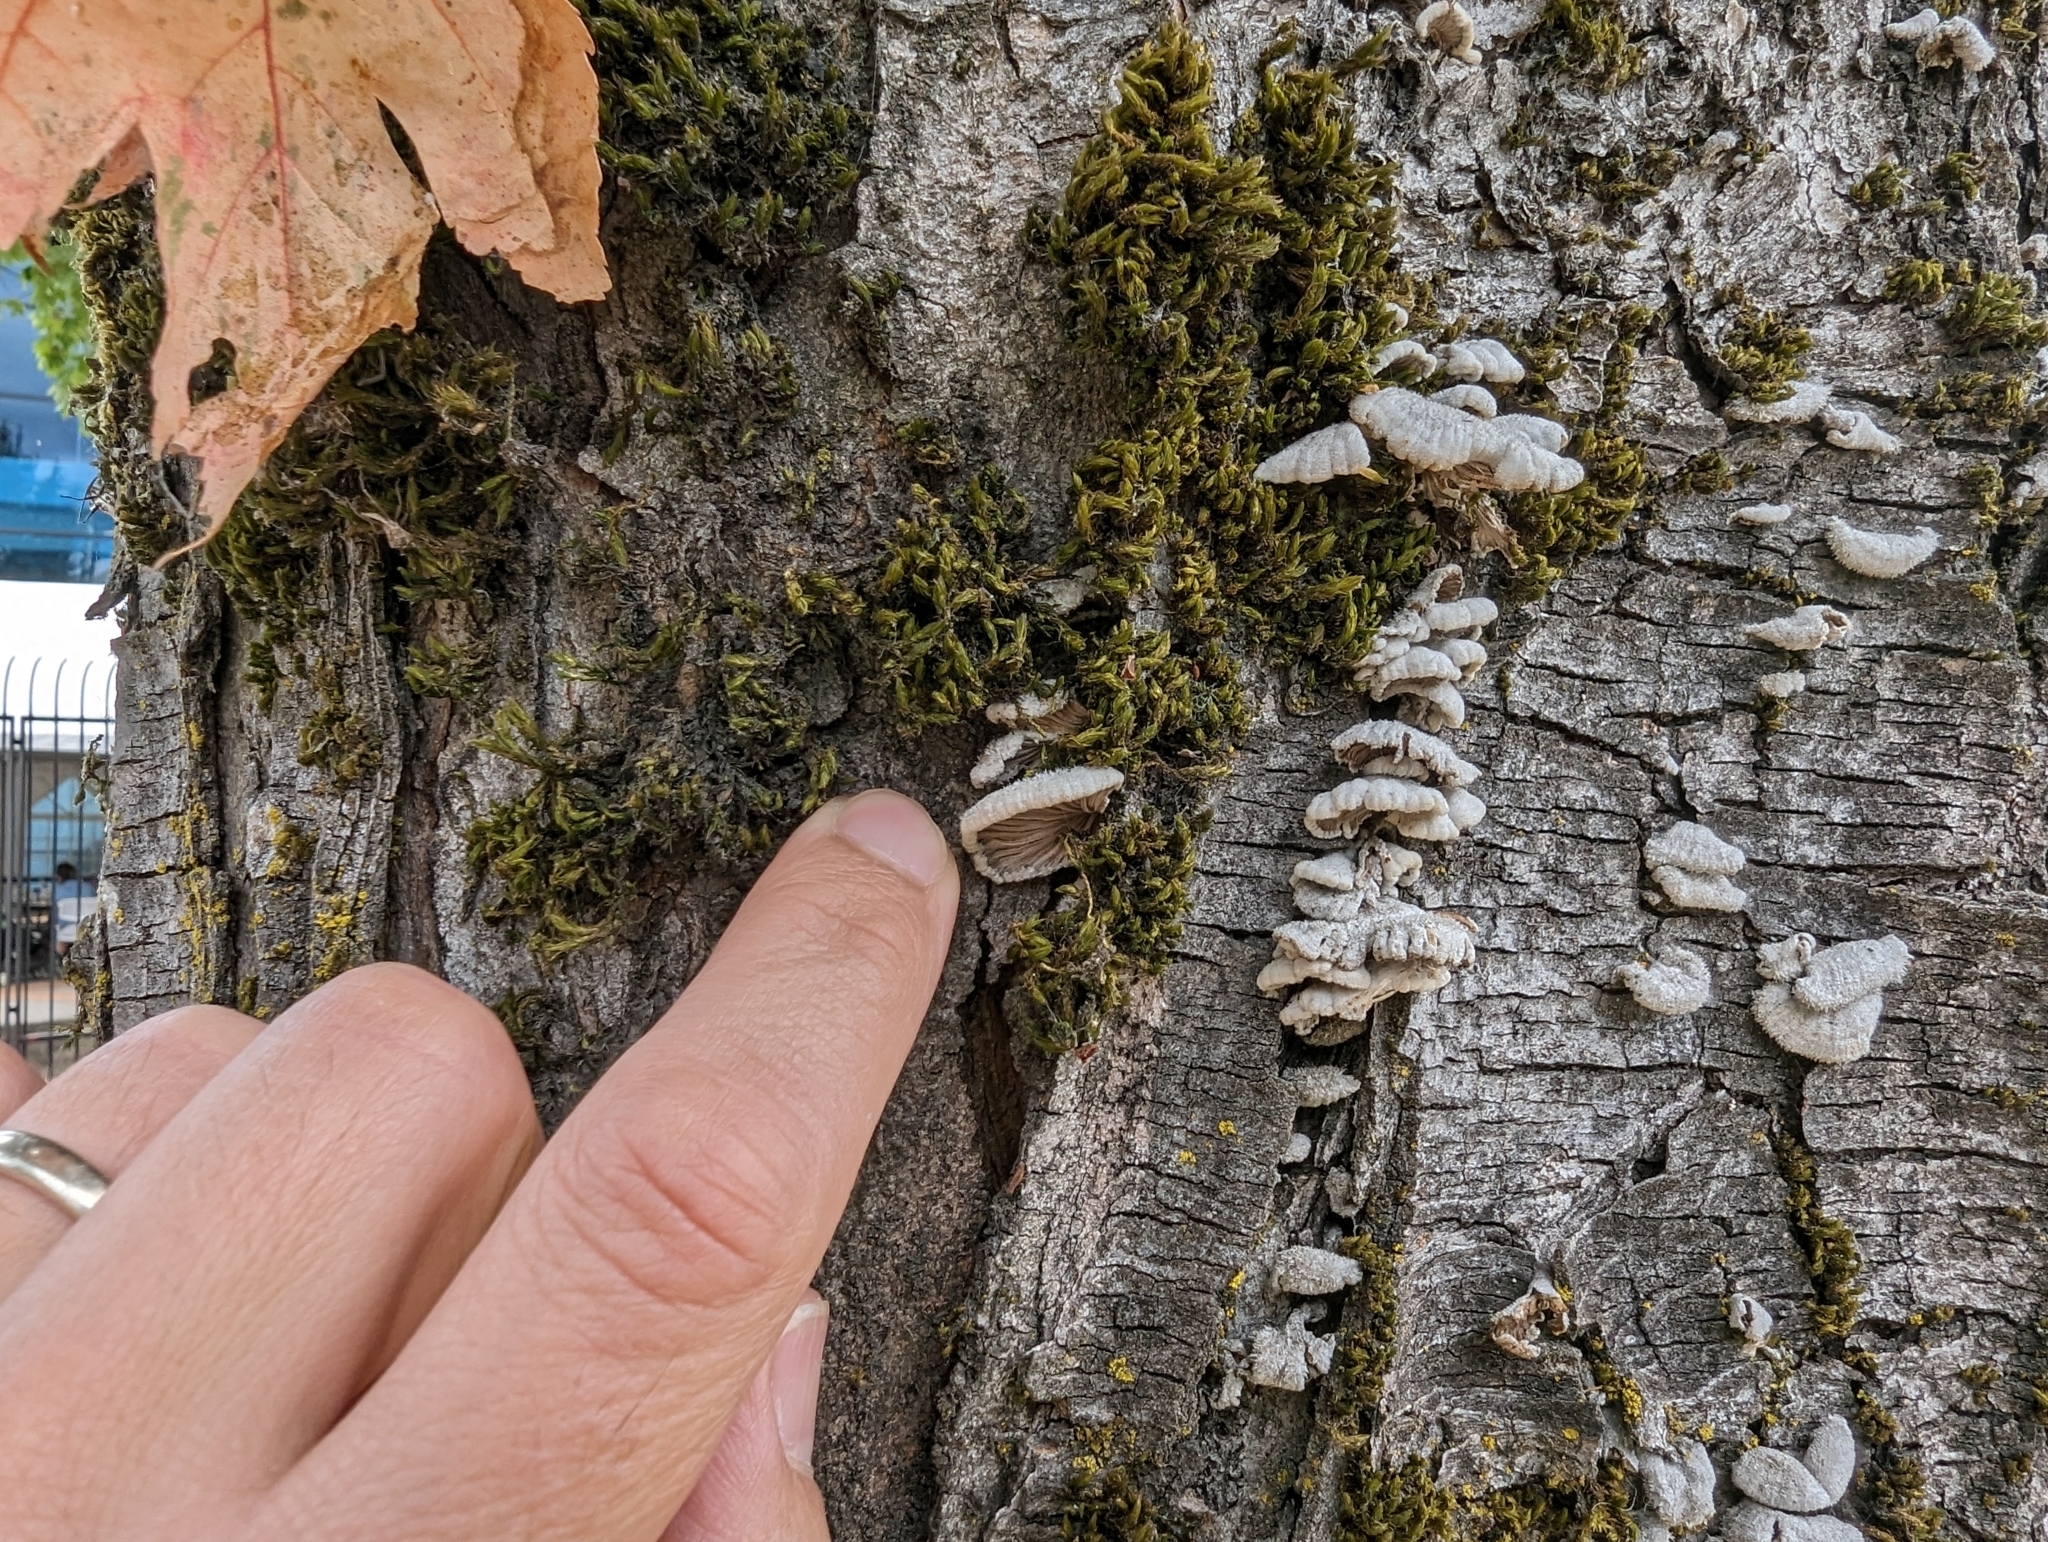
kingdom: Fungi
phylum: Basidiomycota
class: Agaricomycetes
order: Agaricales
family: Schizophyllaceae
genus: Schizophyllum
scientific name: Schizophyllum commune
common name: Common porecrust
